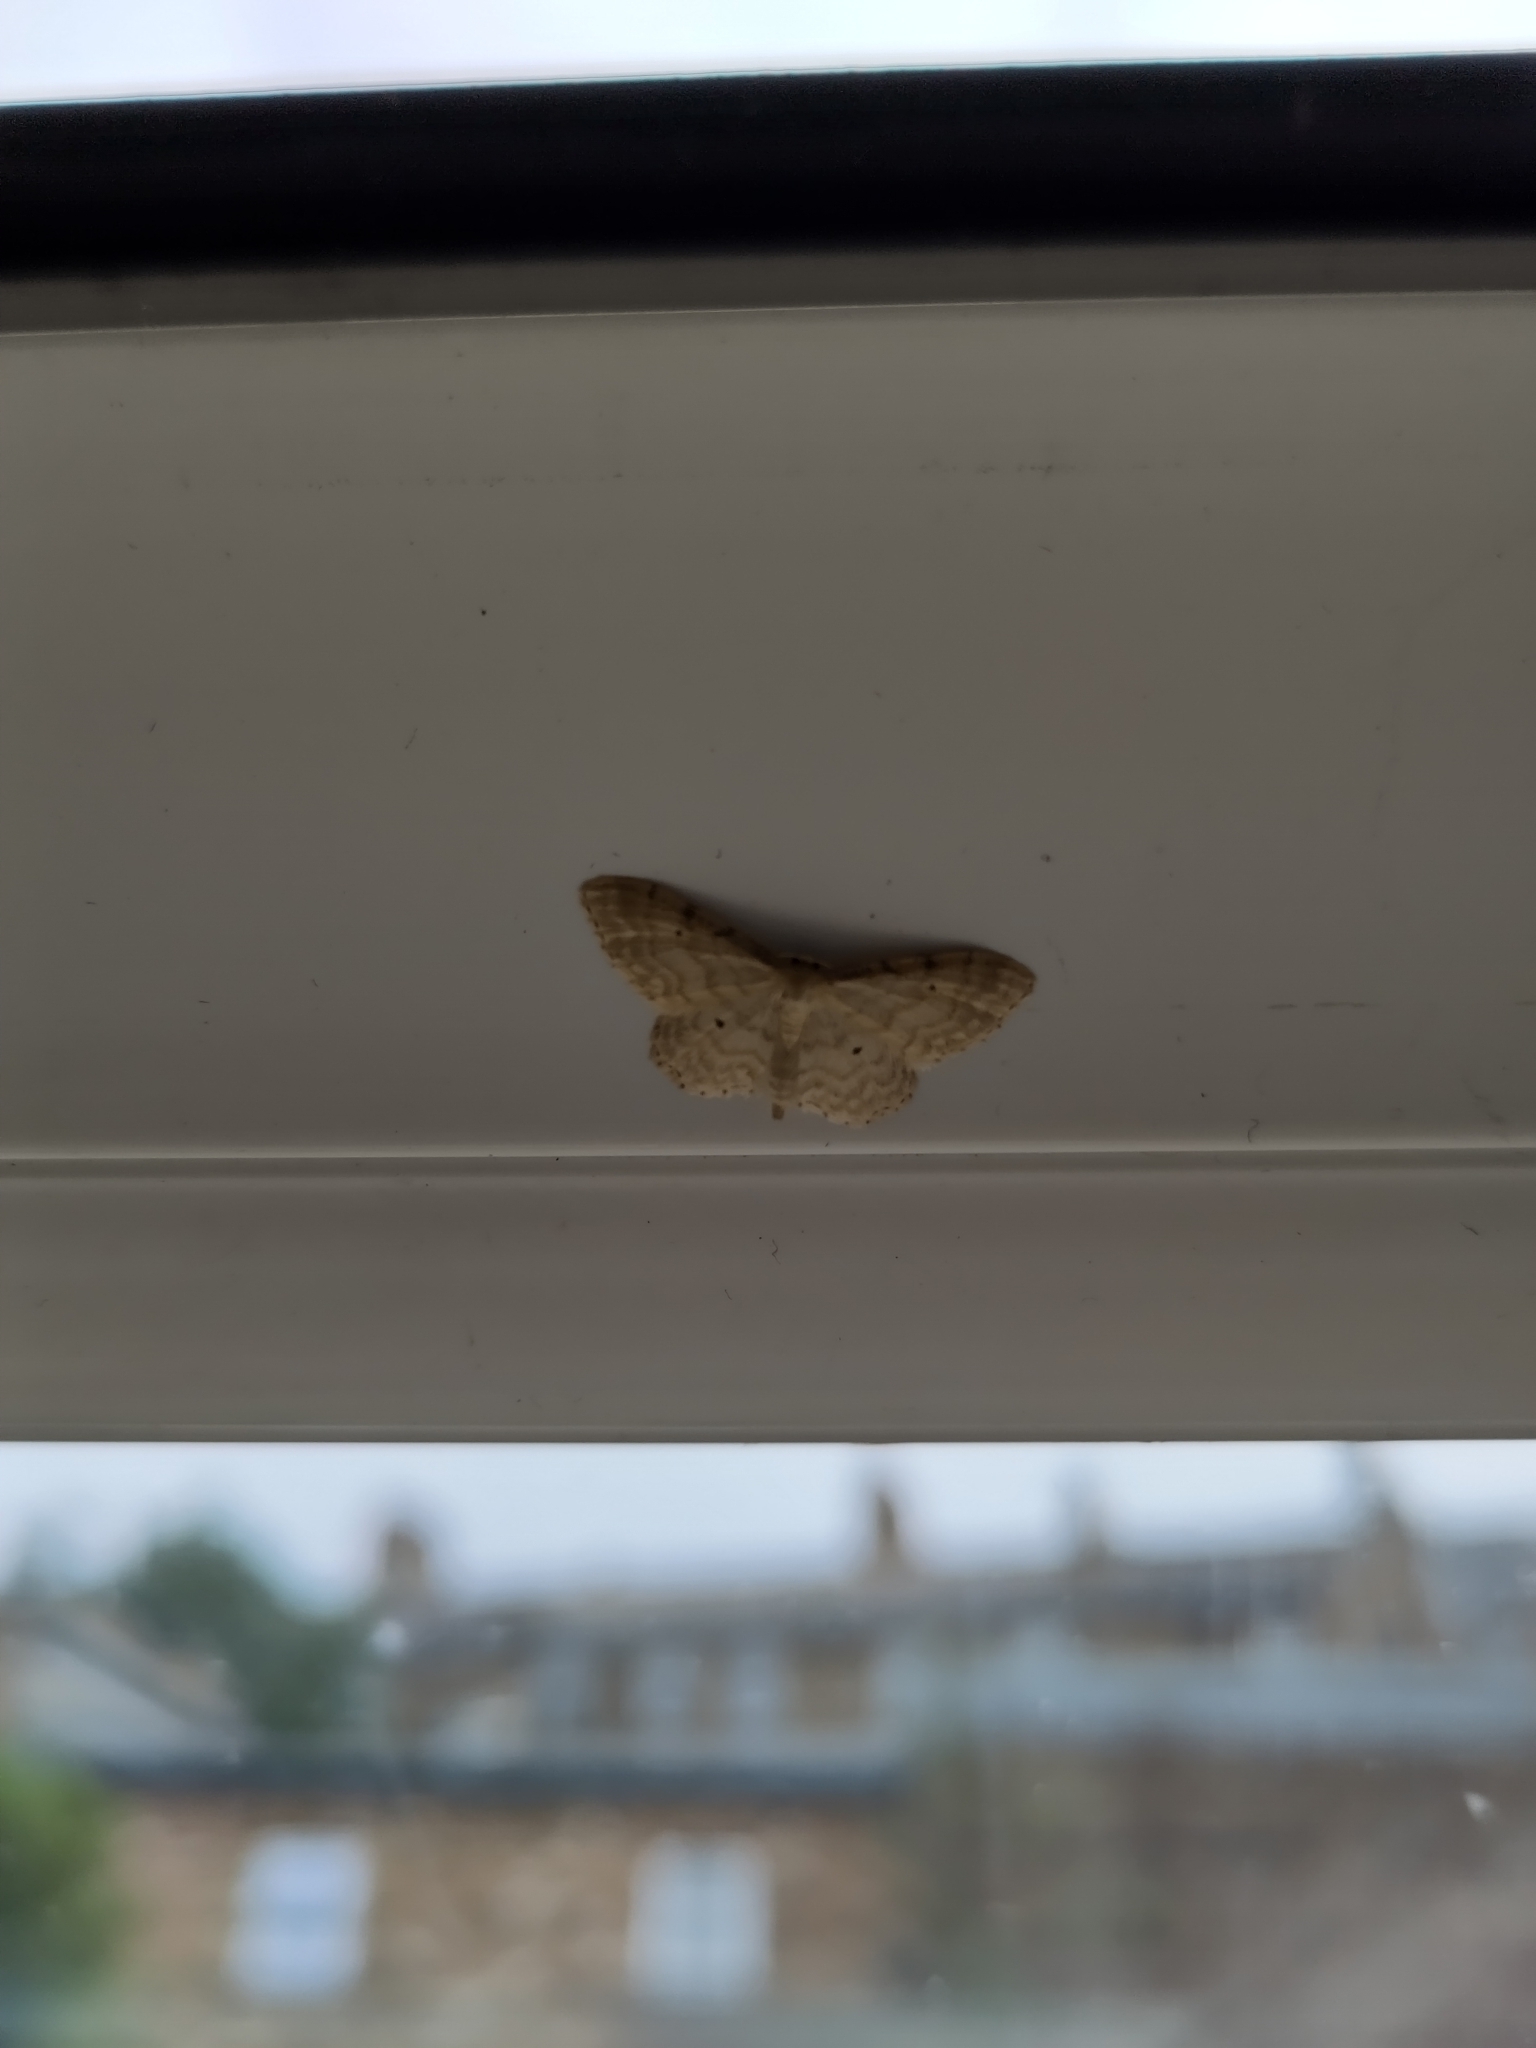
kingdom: Animalia
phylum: Arthropoda
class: Insecta
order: Lepidoptera
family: Geometridae
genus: Idaea
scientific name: Idaea fuscovenosa
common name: Dwarf cream wave
